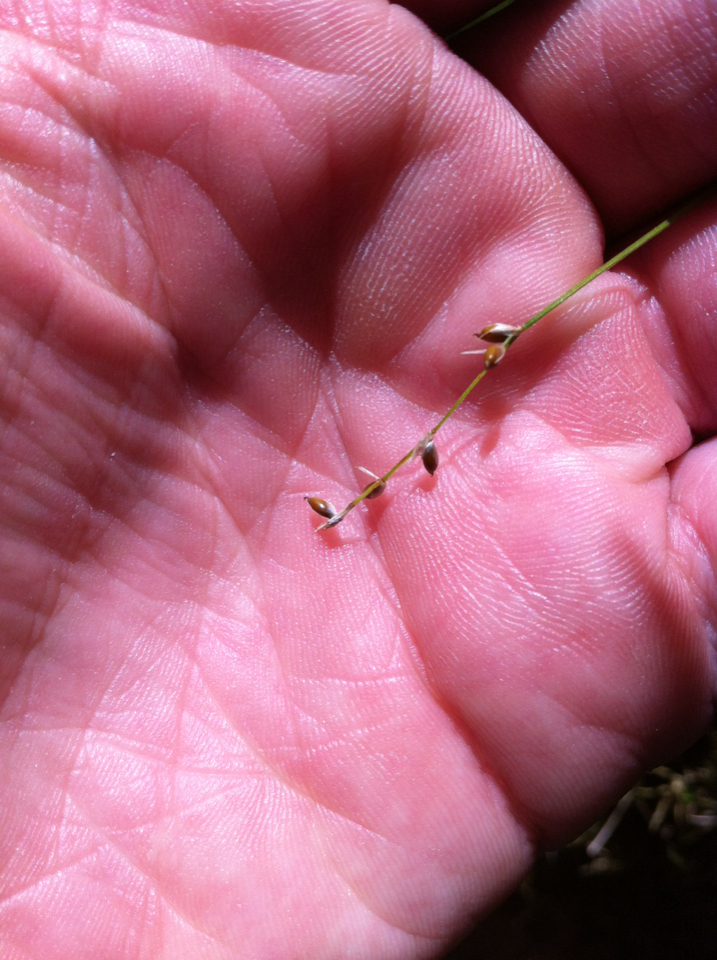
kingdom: Plantae
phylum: Tracheophyta
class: Liliopsida
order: Poales
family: Cyperaceae
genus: Carex
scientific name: Carex disperma
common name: Short-leaved sedge
